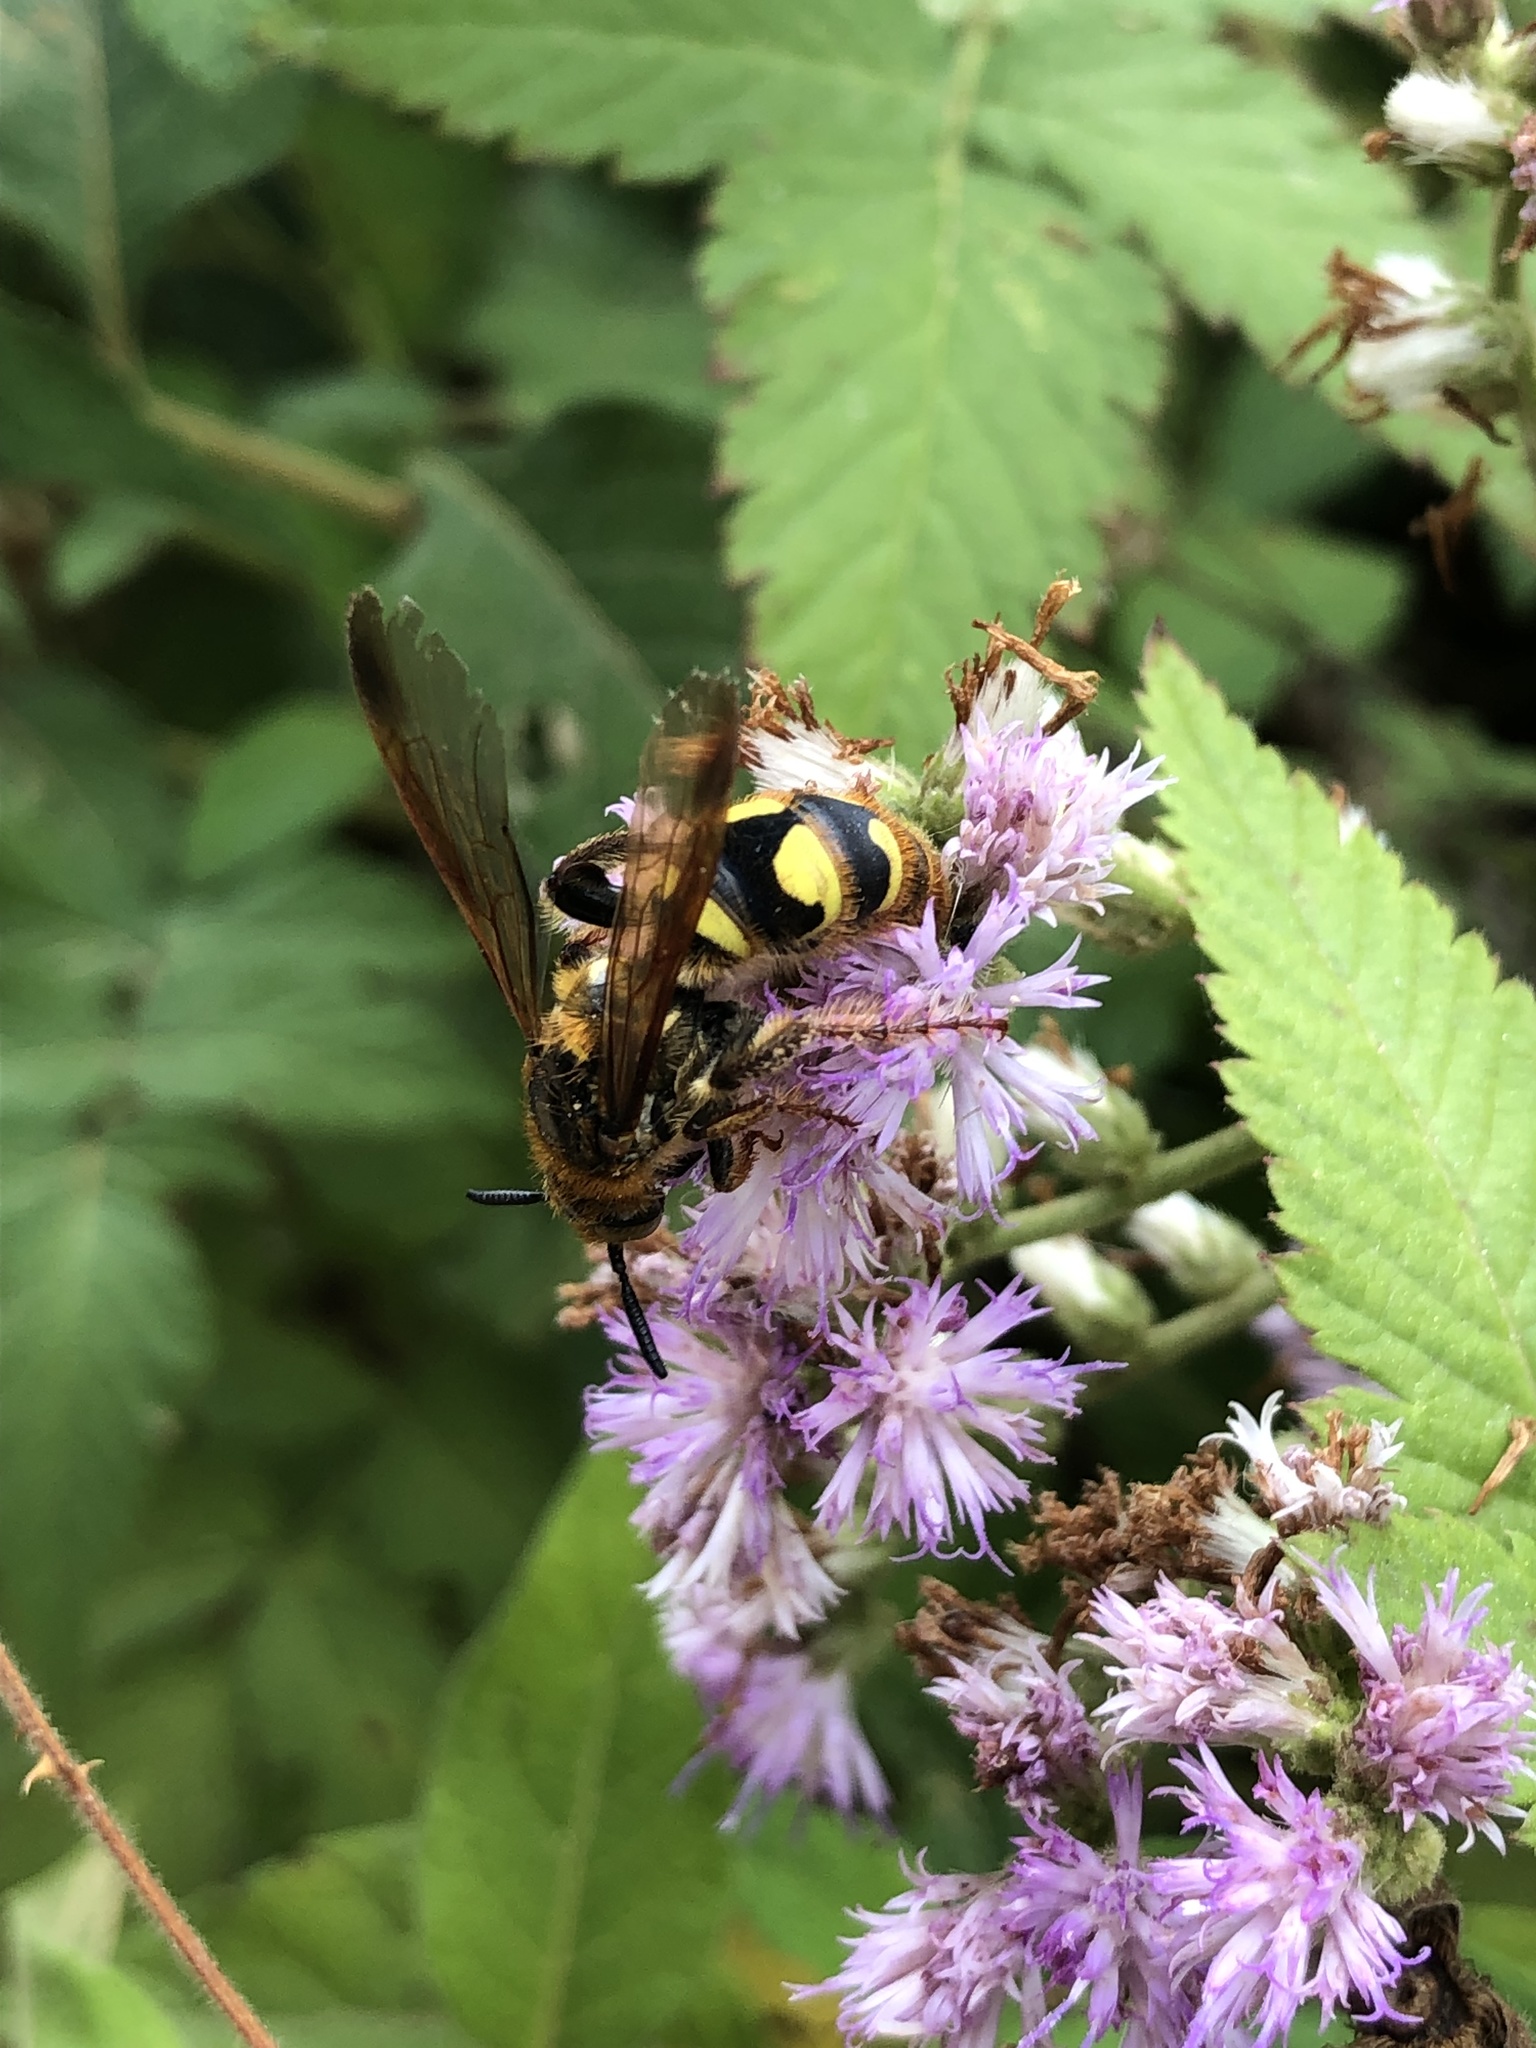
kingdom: Animalia
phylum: Arthropoda
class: Insecta
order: Hymenoptera
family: Scoliidae
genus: Xanthocampsomeris
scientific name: Xanthocampsomeris hesterae
